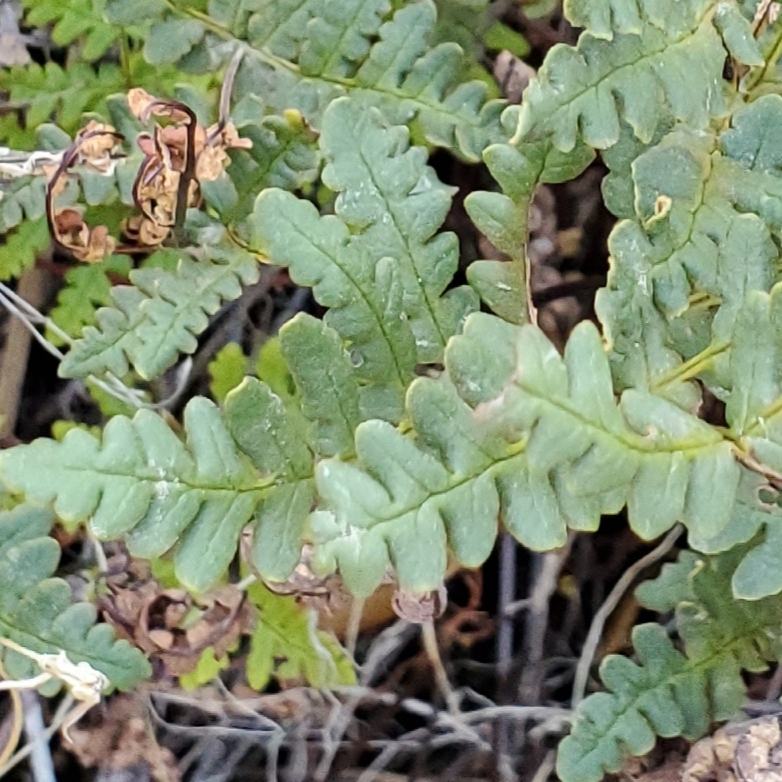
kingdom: Plantae
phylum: Tracheophyta
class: Polypodiopsida
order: Polypodiales
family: Pteridaceae
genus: Pentagramma
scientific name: Pentagramma triangularis
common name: Gold fern
